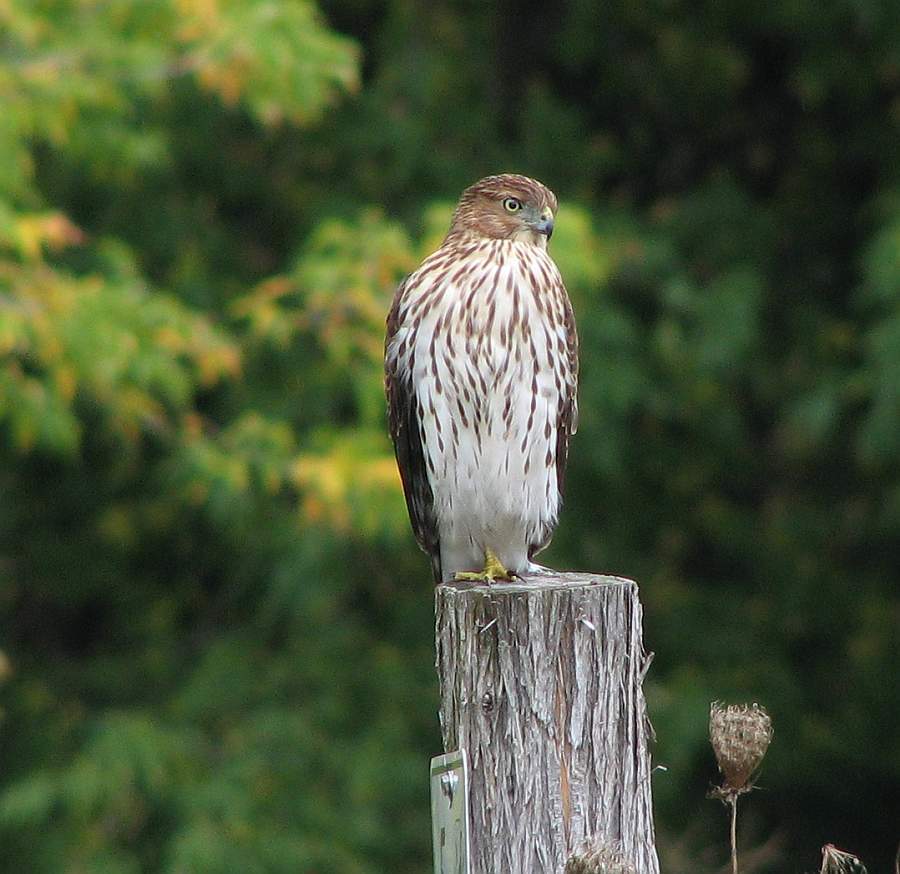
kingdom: Animalia
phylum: Chordata
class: Aves
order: Accipitriformes
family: Accipitridae
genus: Accipiter
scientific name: Accipiter cooperii
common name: Cooper's hawk
